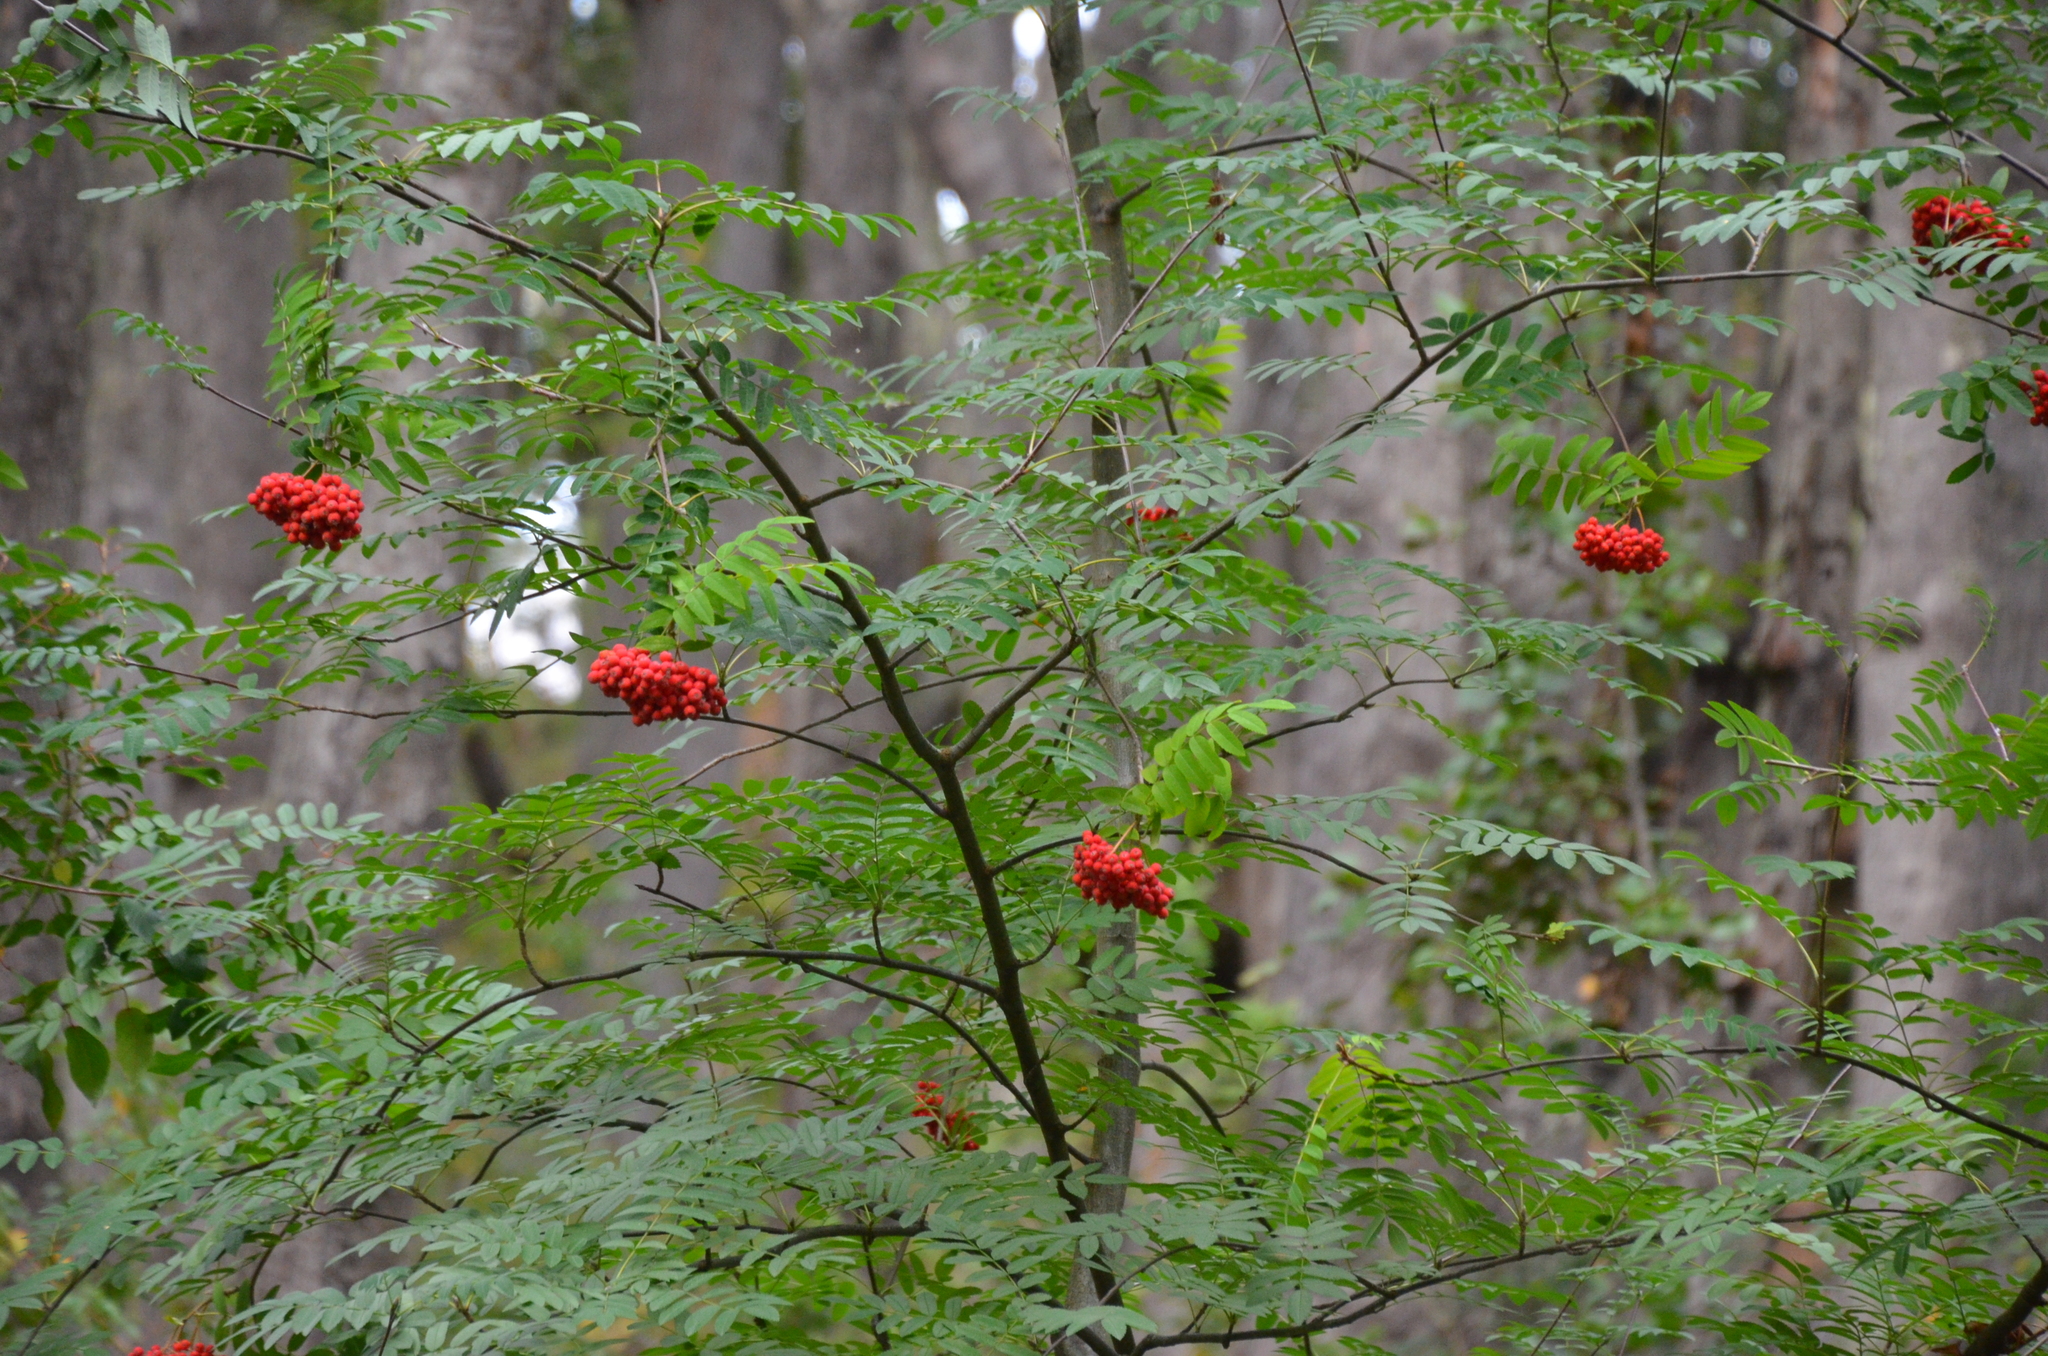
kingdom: Plantae
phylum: Tracheophyta
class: Magnoliopsida
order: Rosales
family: Rosaceae
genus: Sorbus
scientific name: Sorbus aucuparia
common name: Rowan
